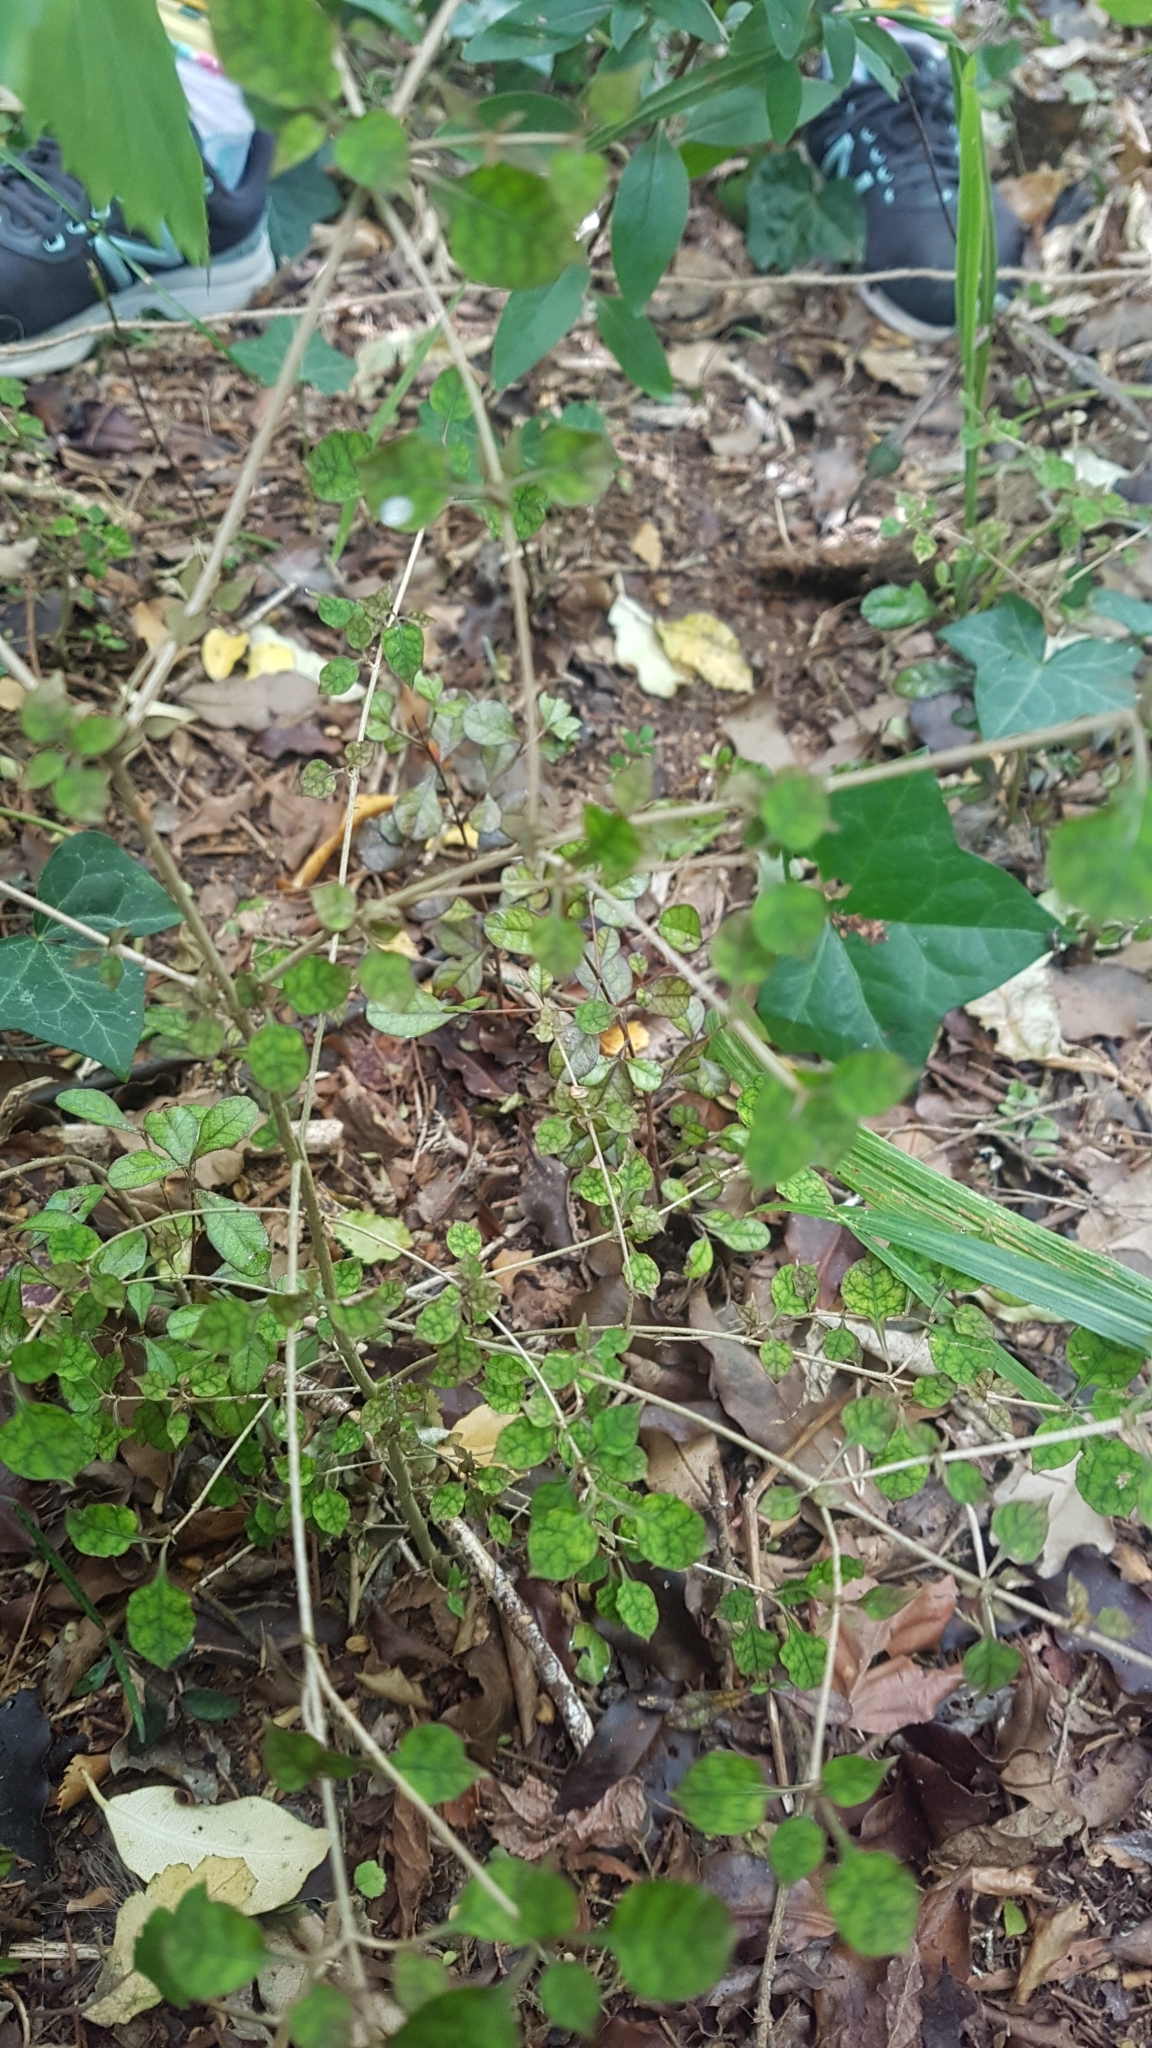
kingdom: Plantae
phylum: Tracheophyta
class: Magnoliopsida
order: Gentianales
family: Rubiaceae
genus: Coprosma
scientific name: Coprosma areolata
